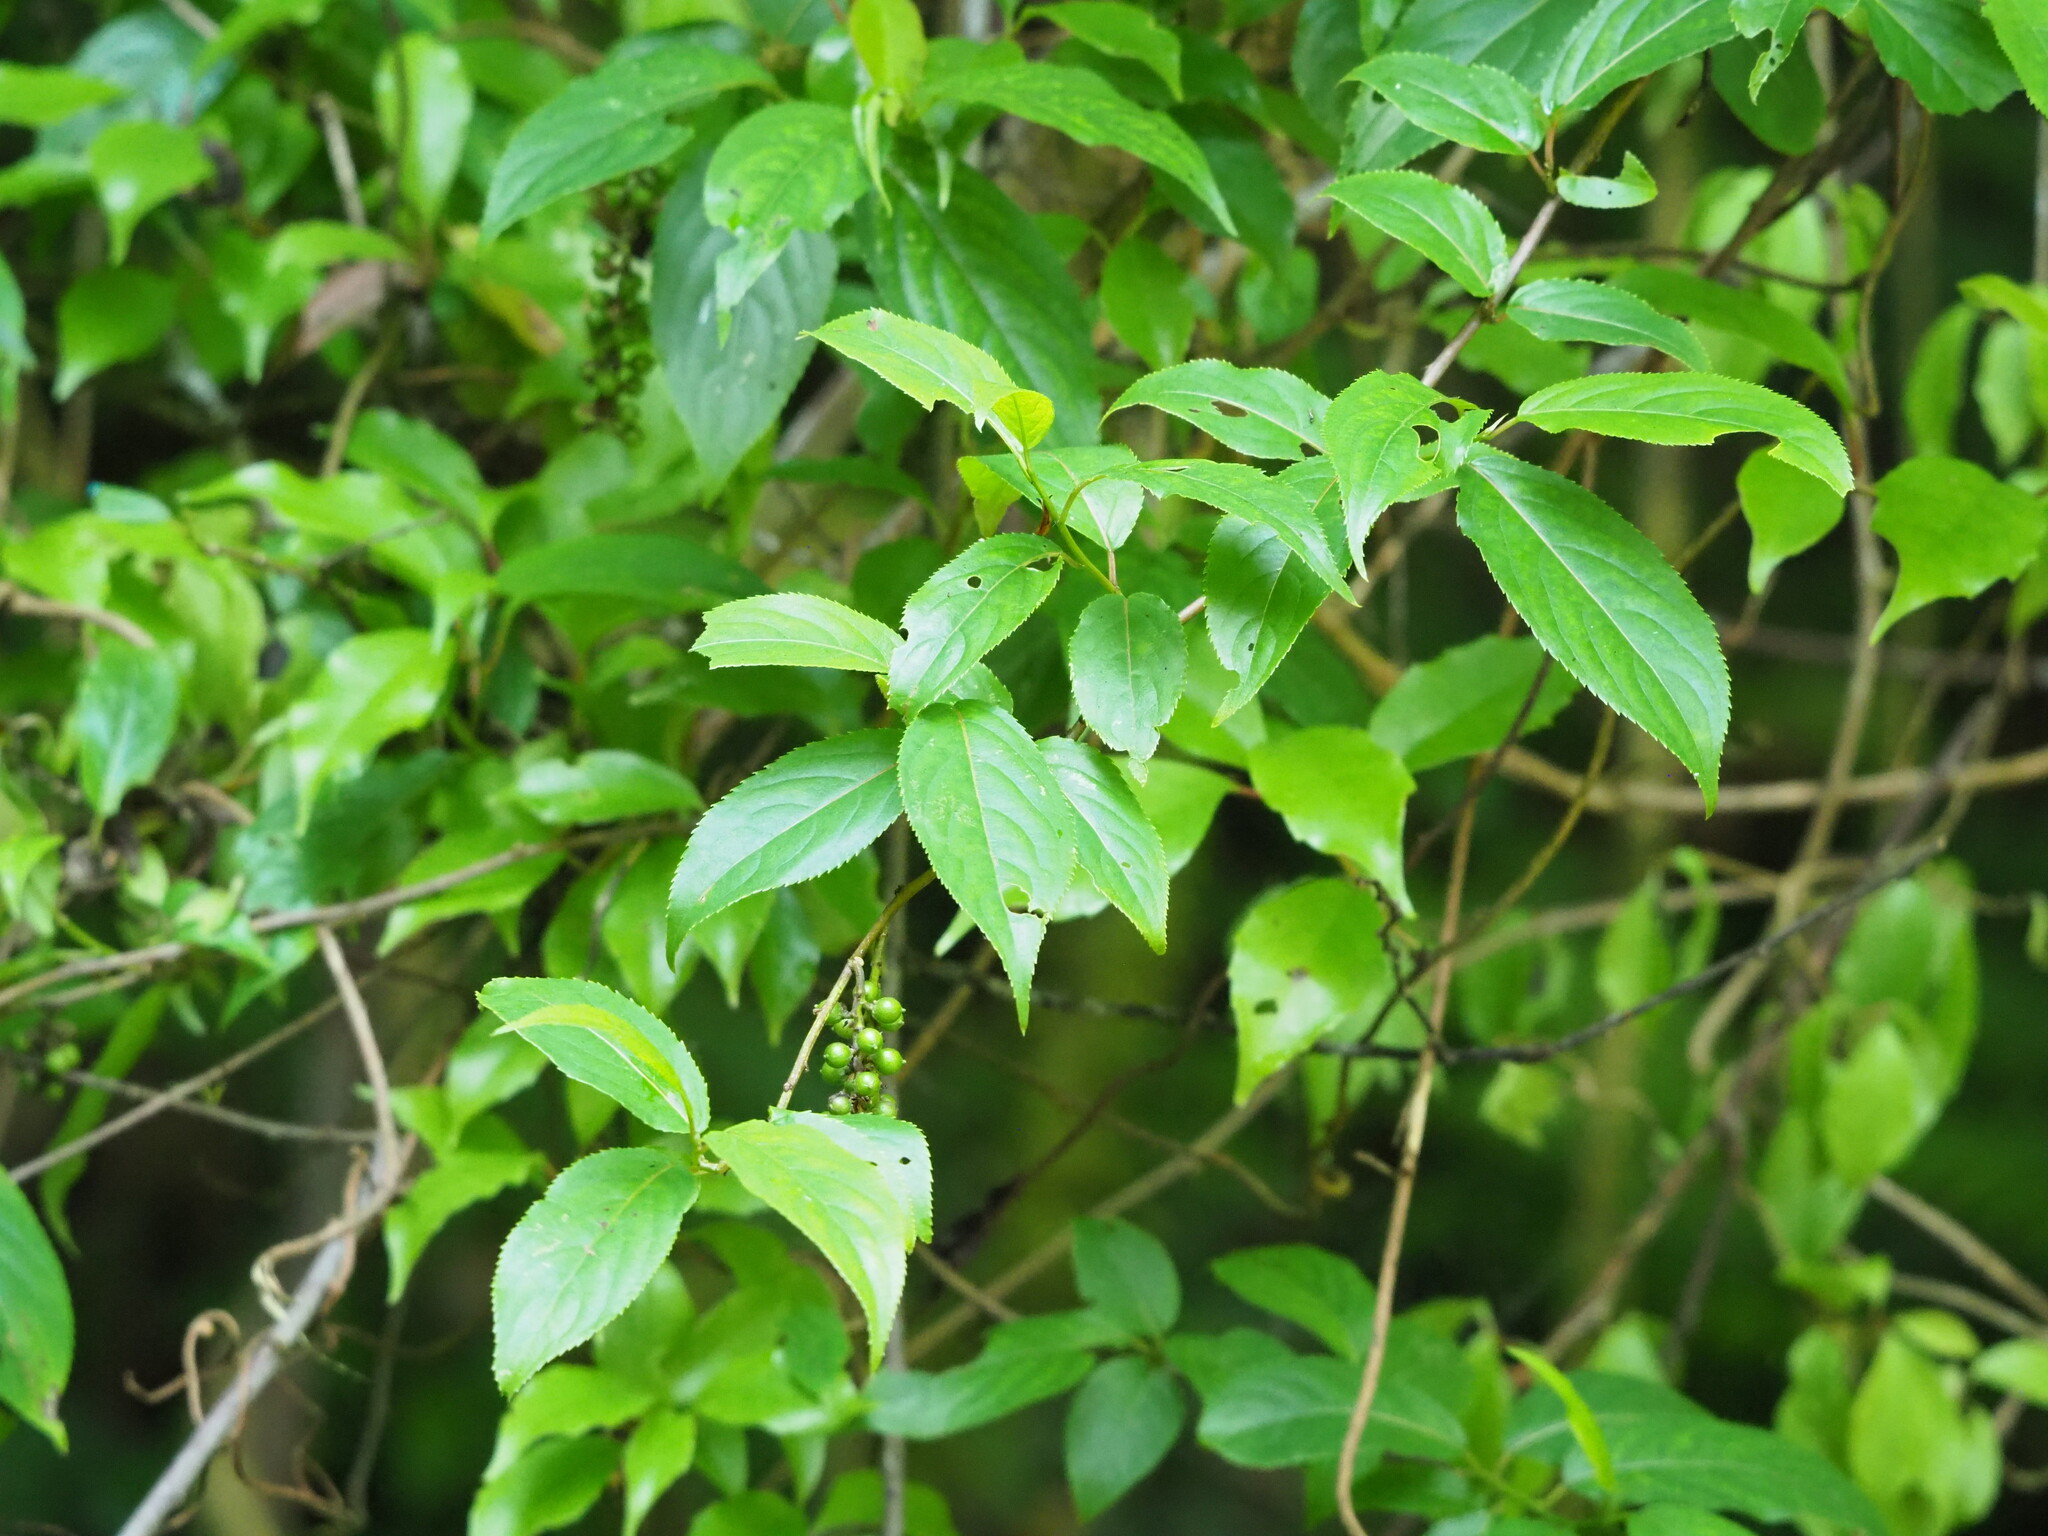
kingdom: Plantae
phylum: Tracheophyta
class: Magnoliopsida
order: Crossosomatales
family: Stachyuraceae
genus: Stachyurus
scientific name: Stachyurus himalaicus
